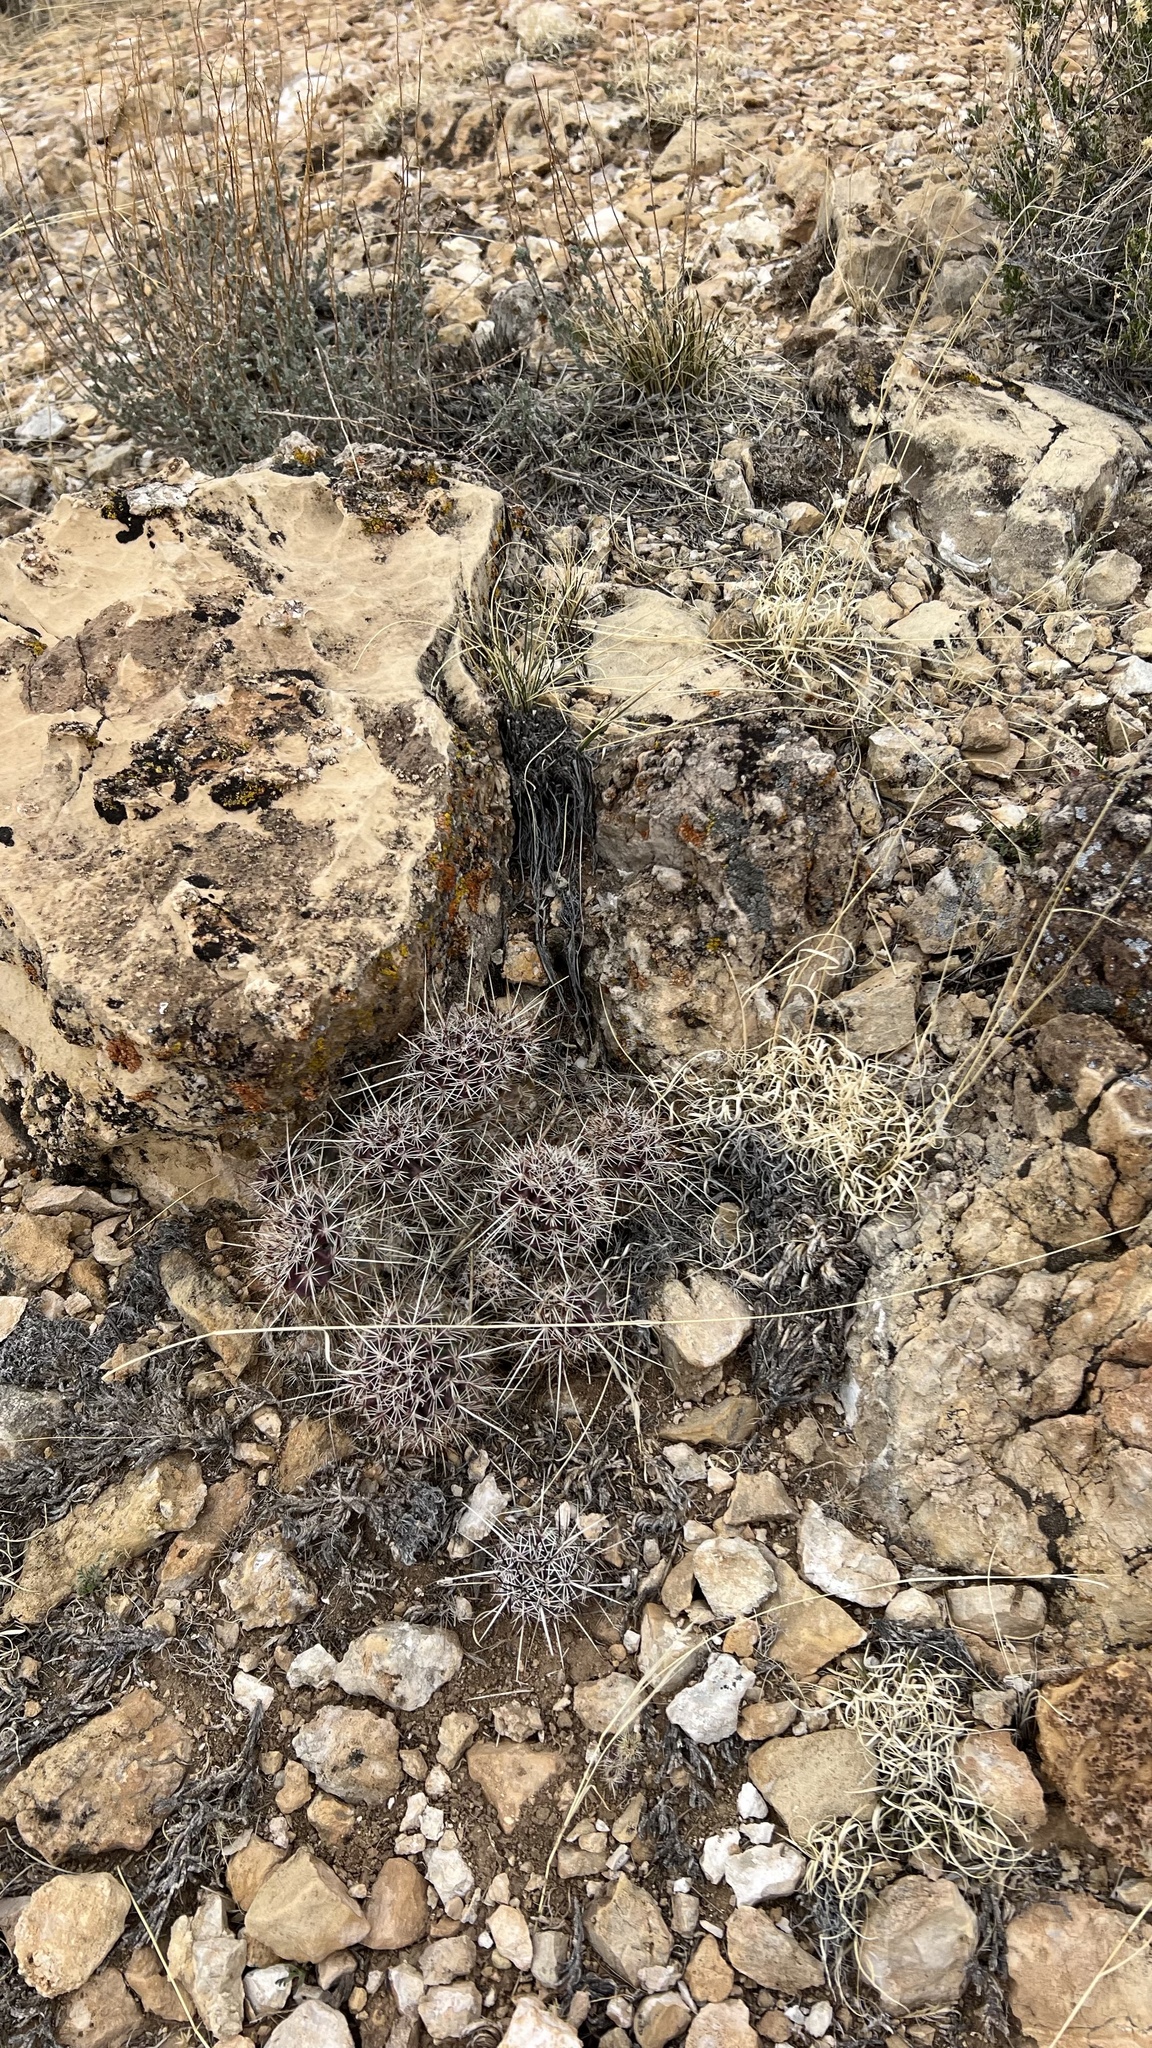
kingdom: Plantae
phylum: Tracheophyta
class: Magnoliopsida
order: Caryophyllales
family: Cactaceae
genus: Echinocereus
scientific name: Echinocereus engelmannii
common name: Engelmann's hedgehog cactus
